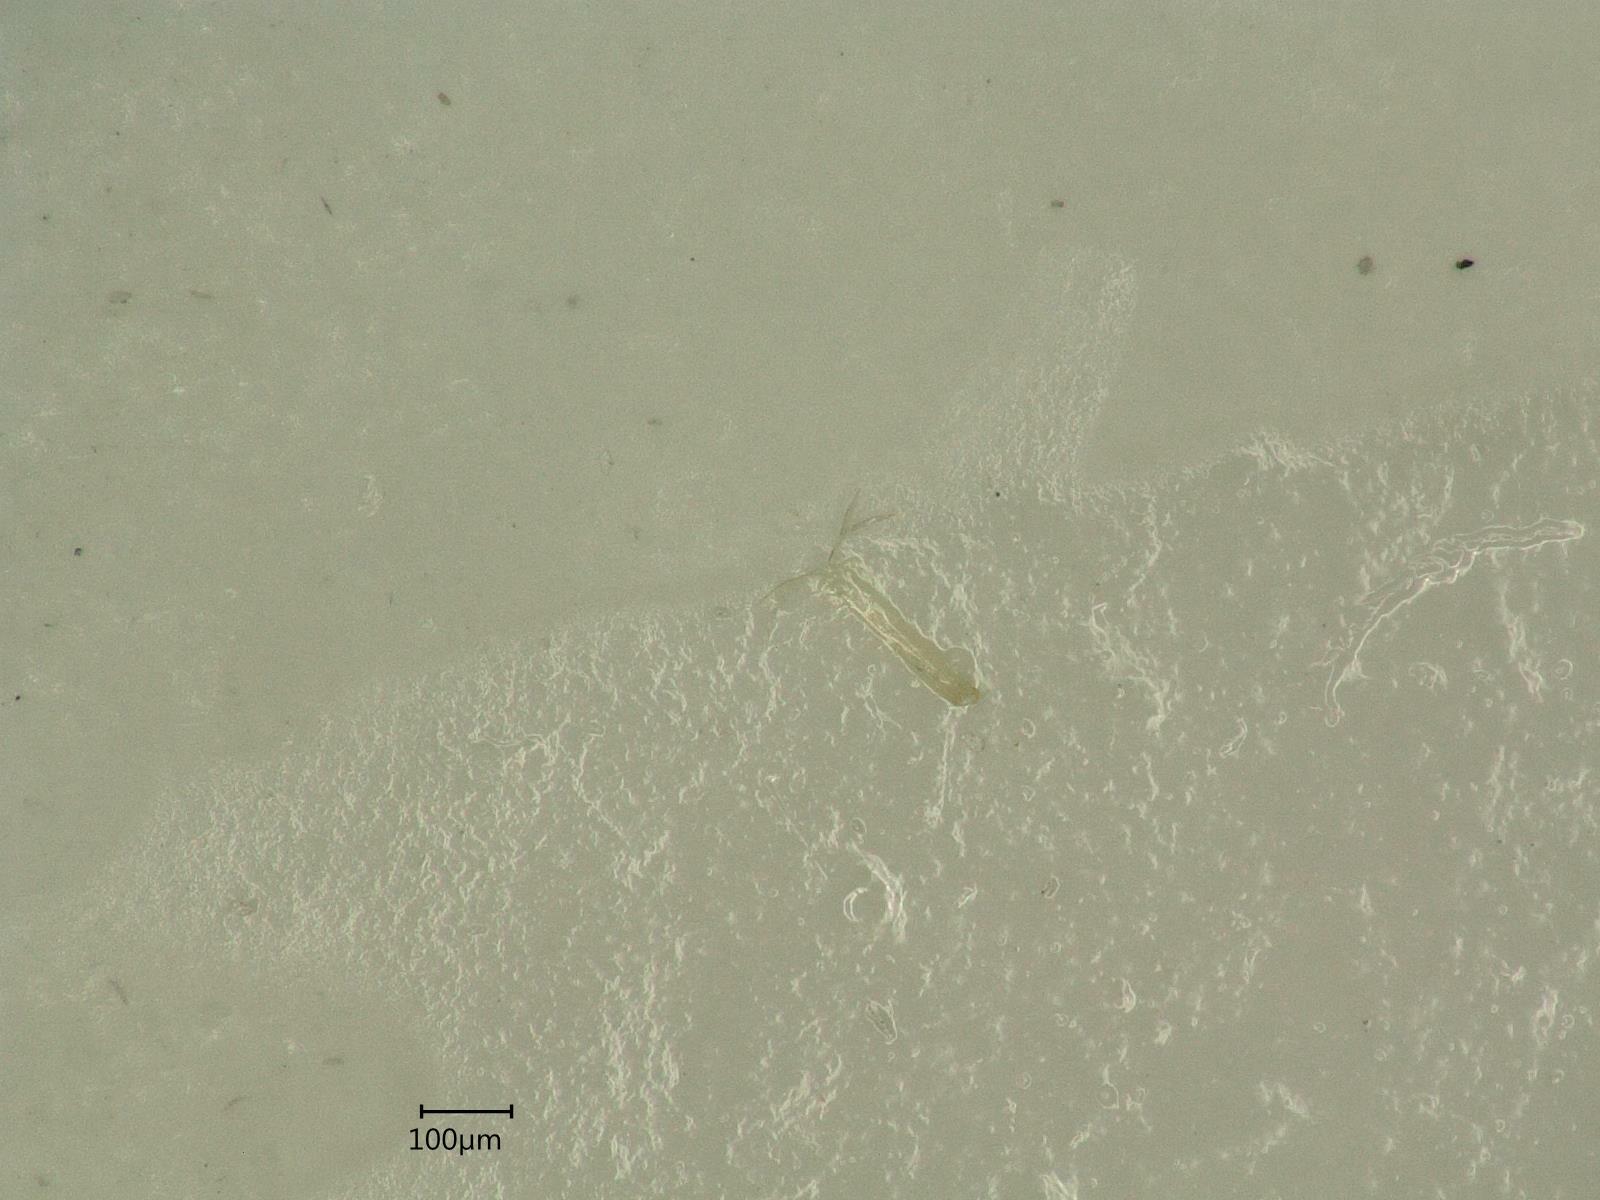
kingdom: Animalia
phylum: Arthropoda
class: Insecta
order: Hemiptera
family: Cicadellidae
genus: Eupteryx
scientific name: Eupteryx calcarata
